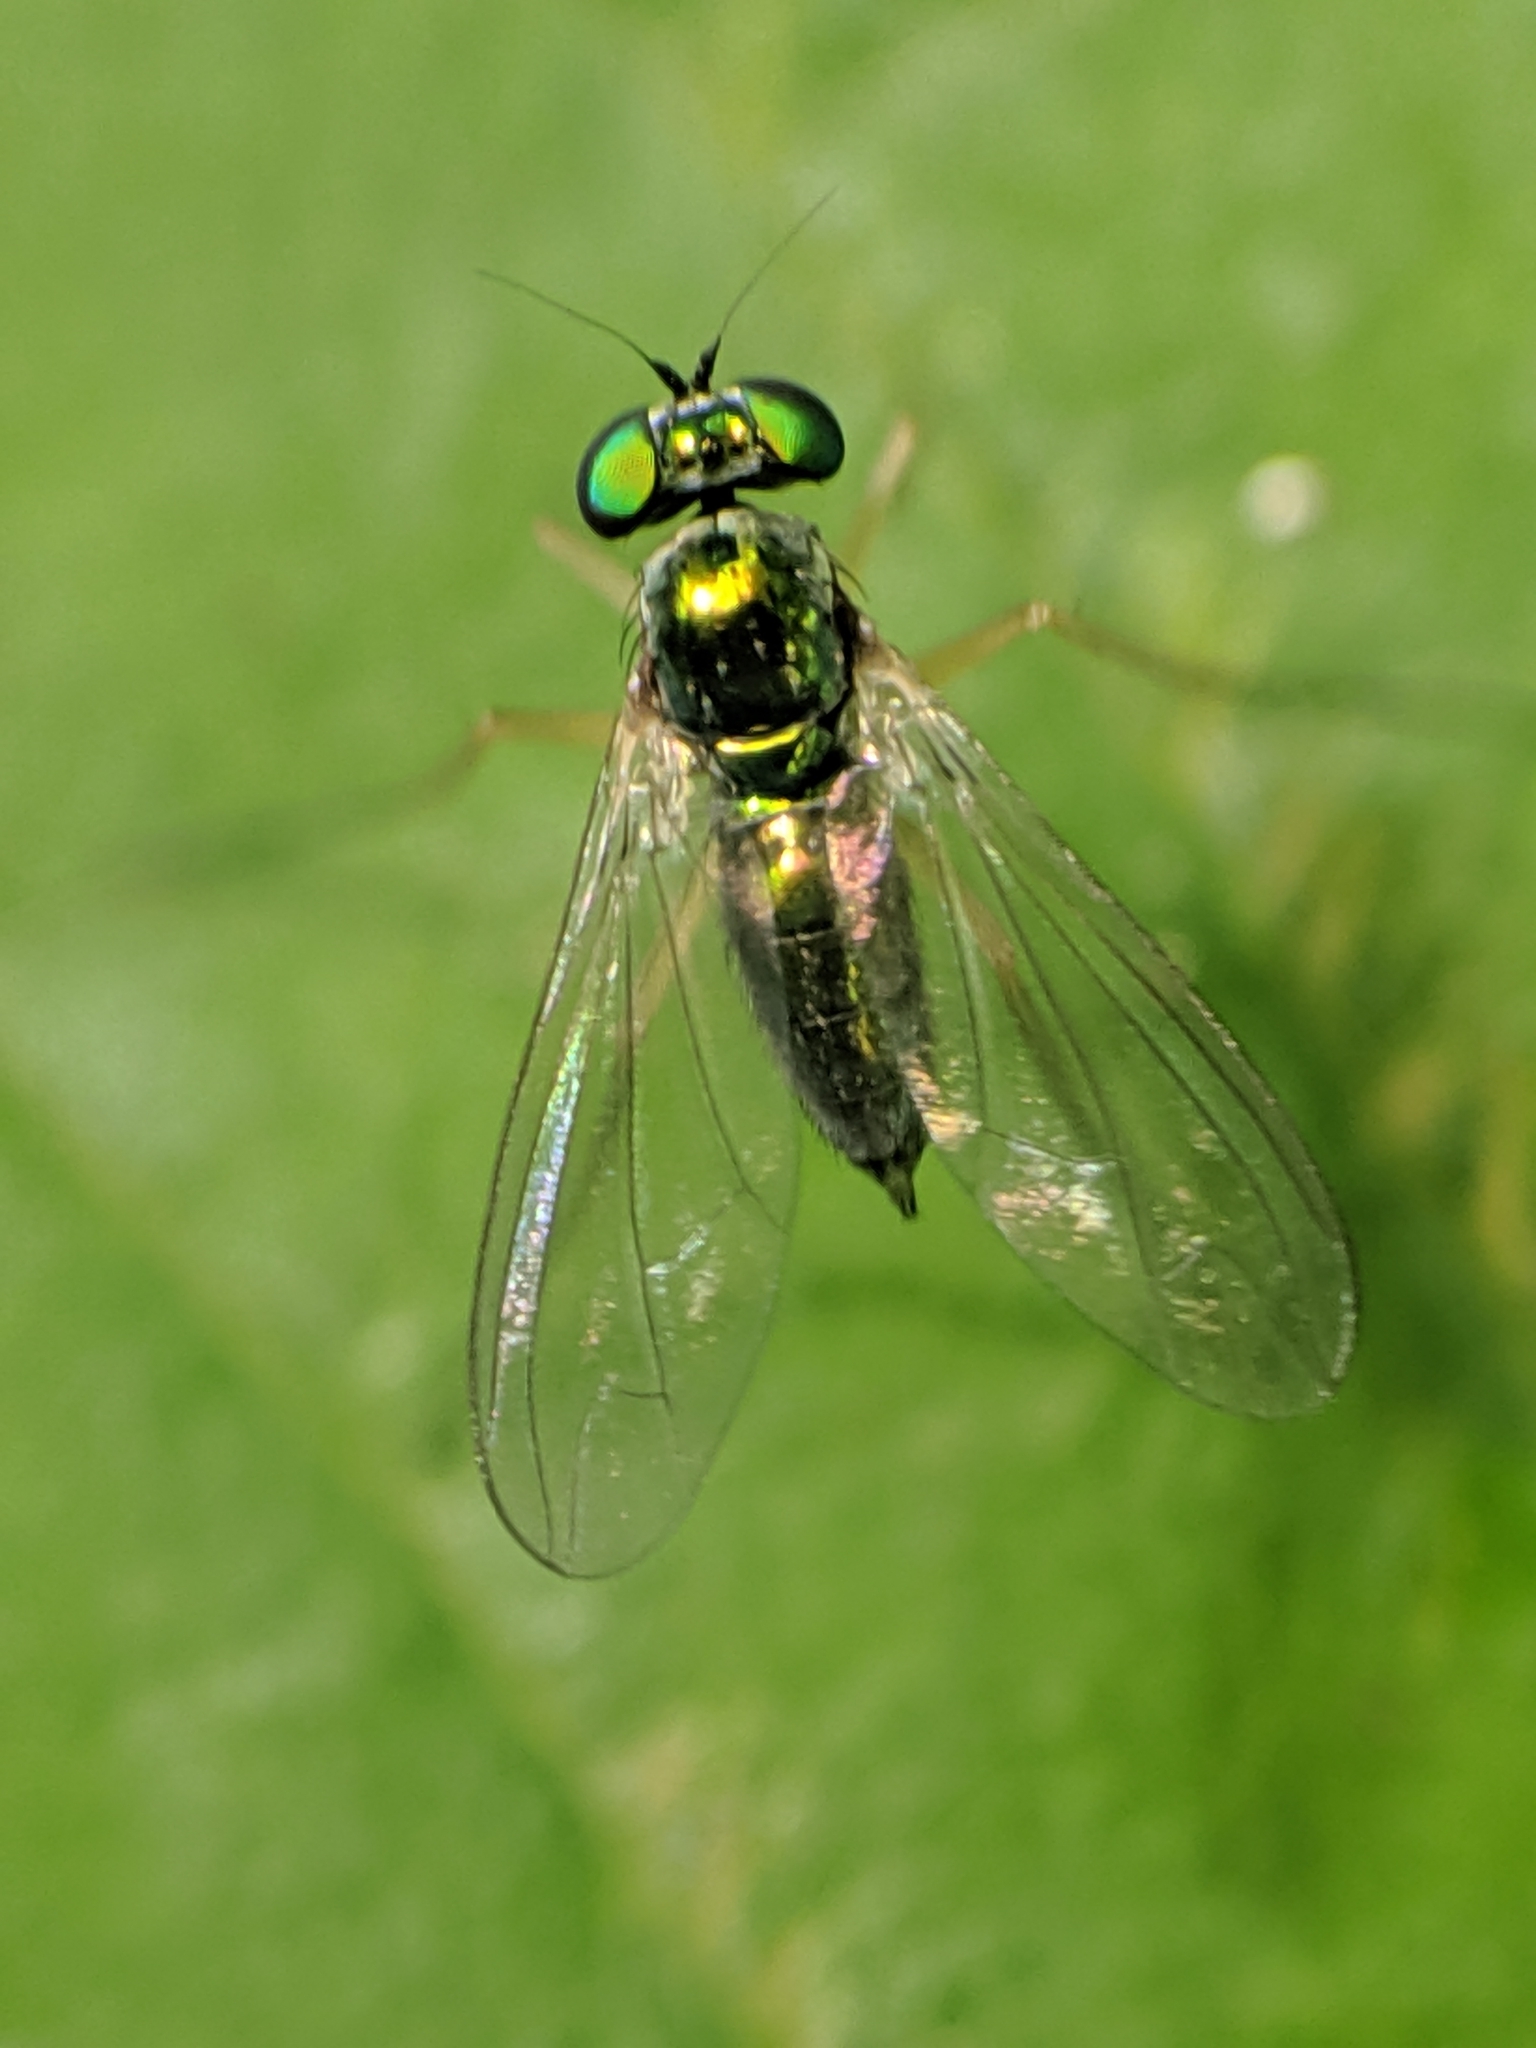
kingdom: Animalia
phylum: Arthropoda
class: Insecta
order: Diptera
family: Dolichopodidae
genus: Amblypsilopus
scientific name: Amblypsilopus scintillans
